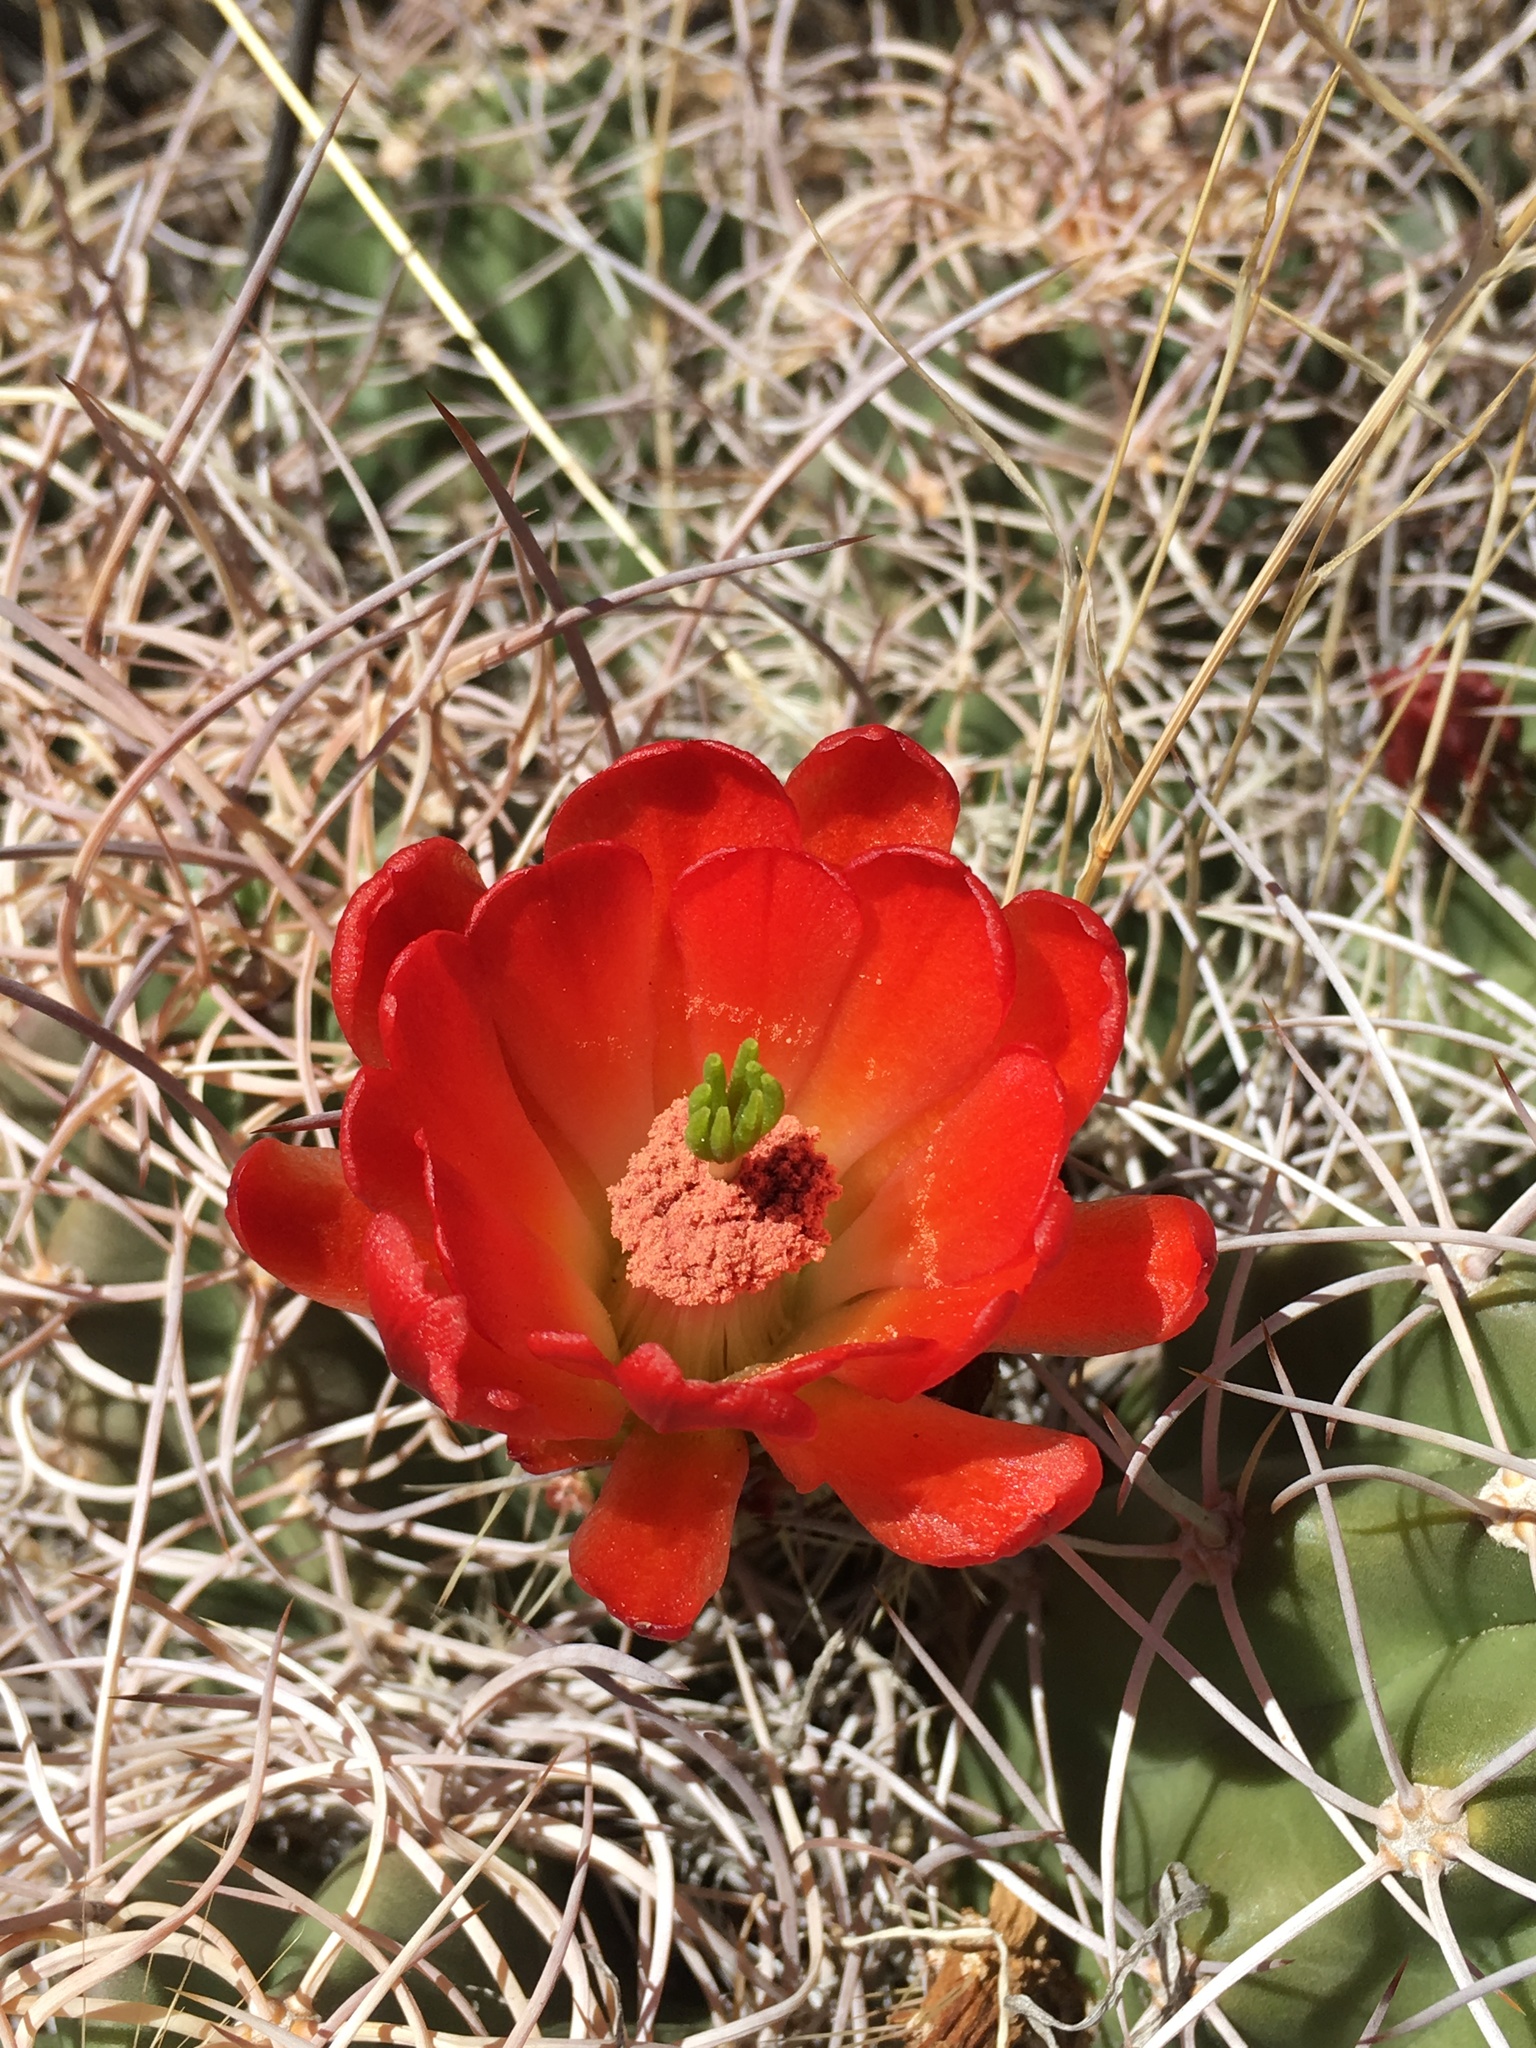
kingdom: Plantae
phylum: Tracheophyta
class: Magnoliopsida
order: Caryophyllales
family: Cactaceae
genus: Echinocereus
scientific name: Echinocereus triglochidiatus
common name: Claretcup hedgehog
